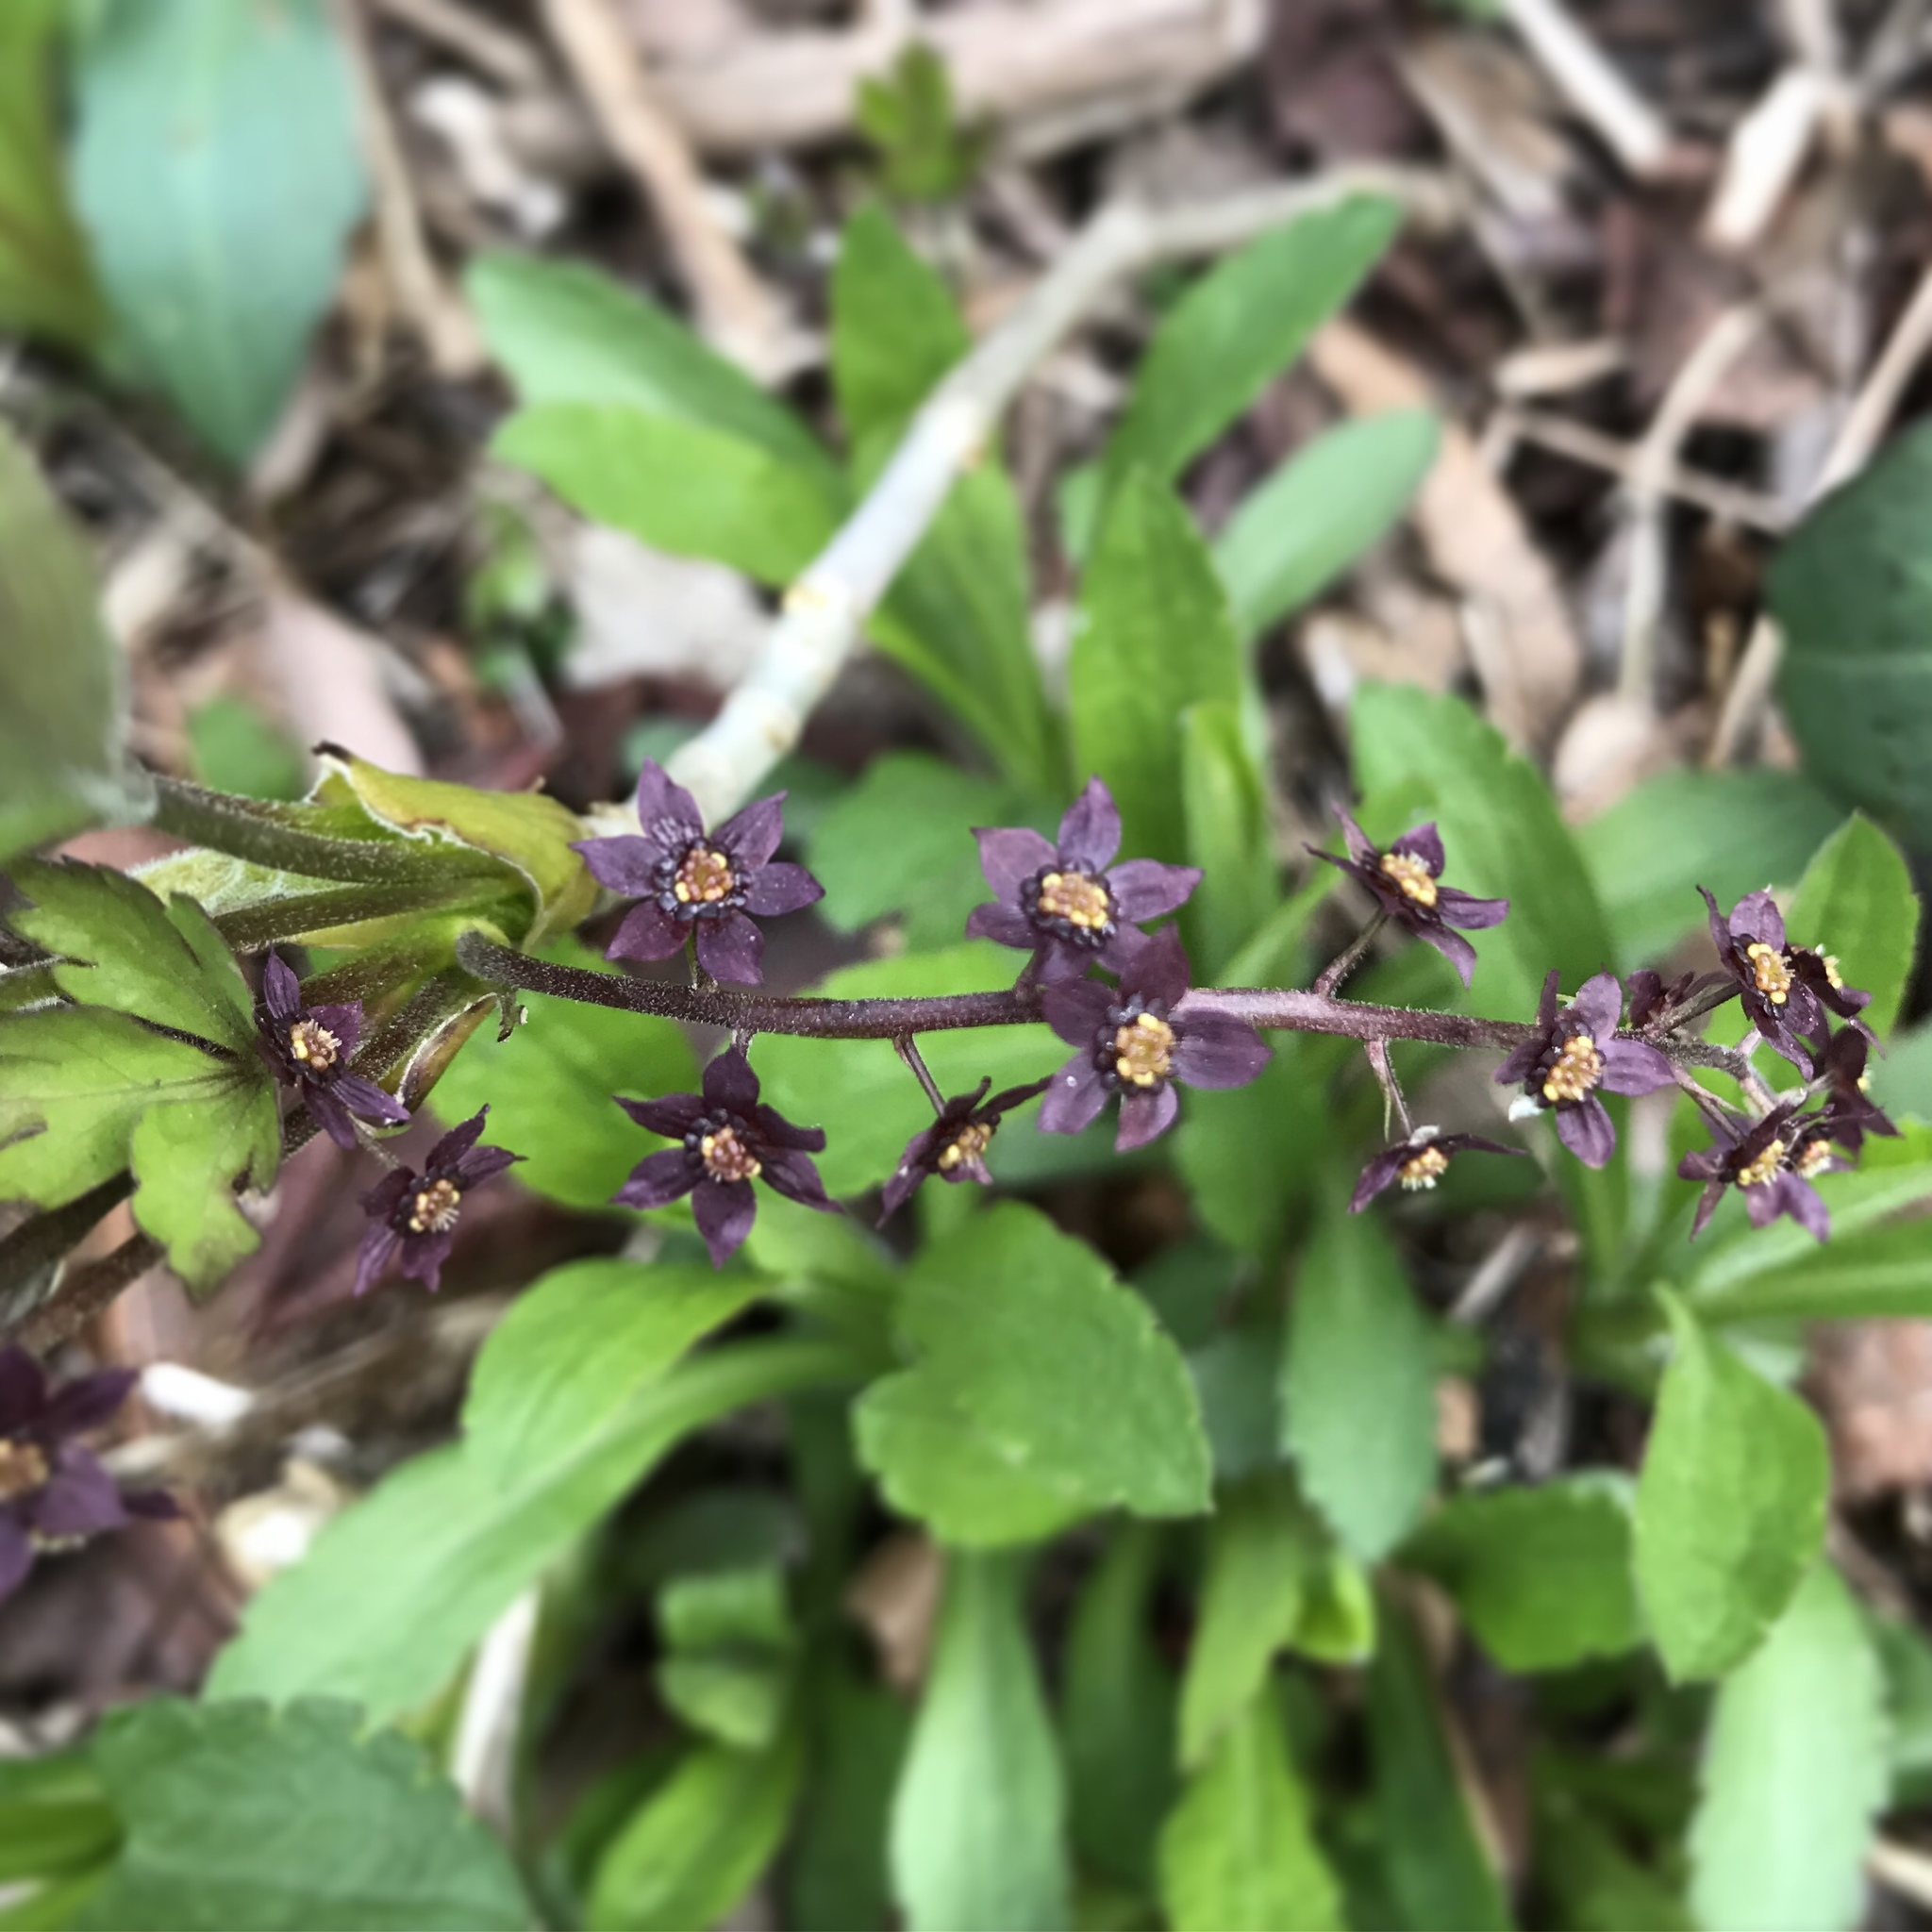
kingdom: Plantae
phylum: Tracheophyta
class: Magnoliopsida
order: Ranunculales
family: Ranunculaceae
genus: Xanthorhiza
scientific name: Xanthorhiza simplicissima
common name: Yellowroot
